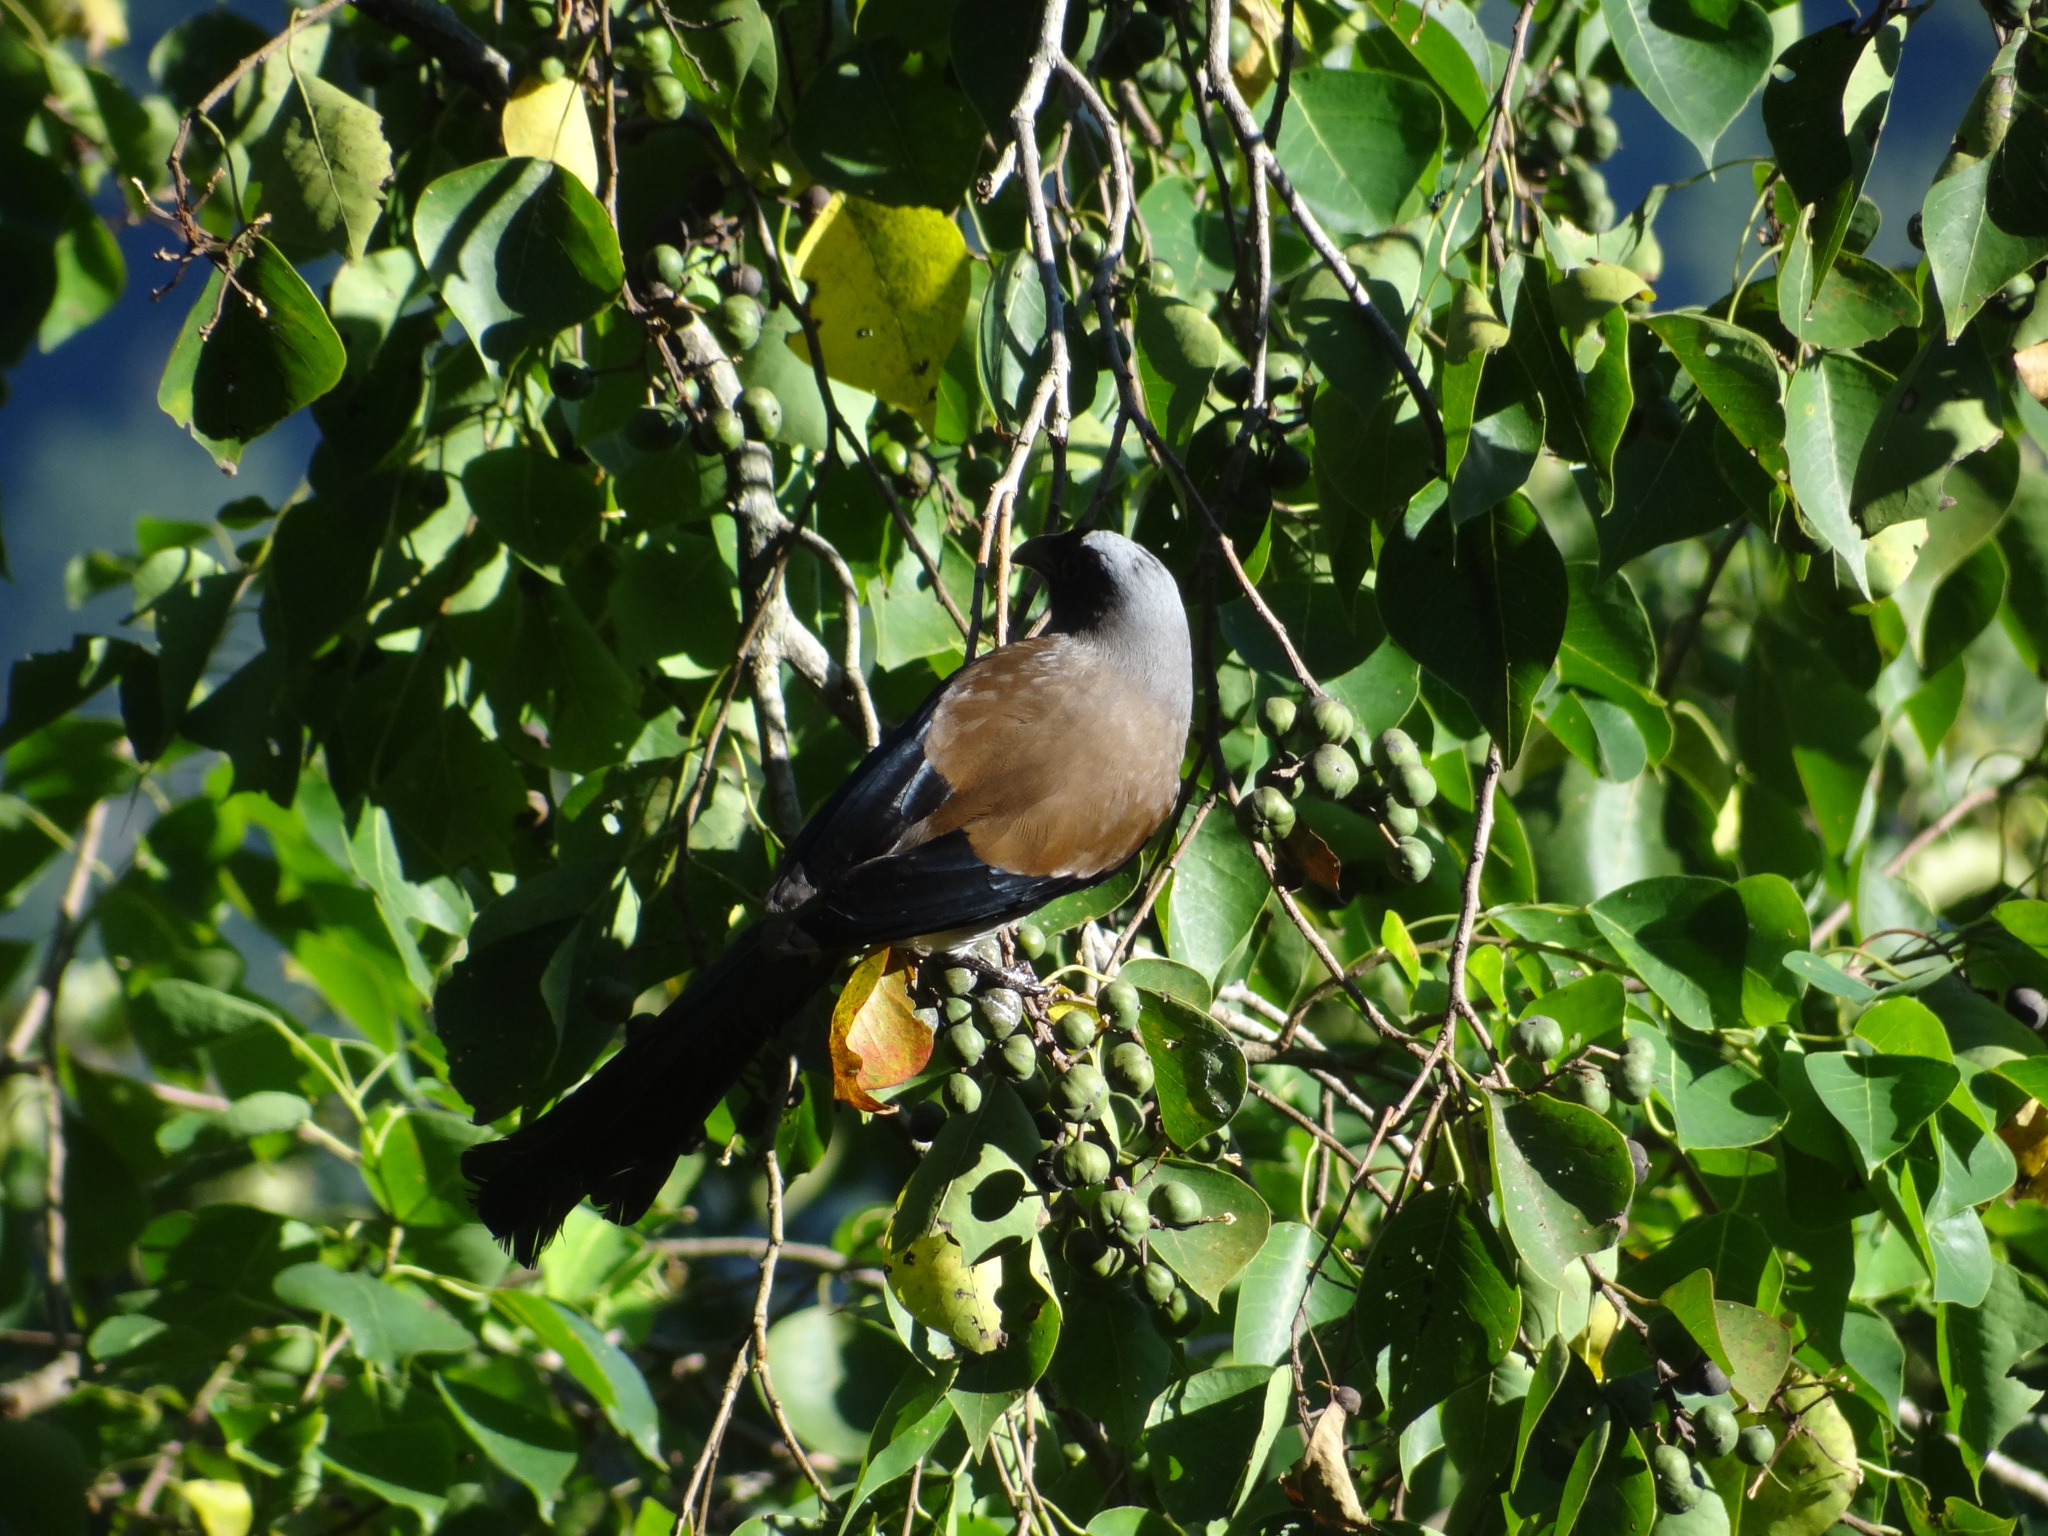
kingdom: Animalia
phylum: Chordata
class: Aves
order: Passeriformes
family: Corvidae
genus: Dendrocitta
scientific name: Dendrocitta formosae
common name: Grey treepie
